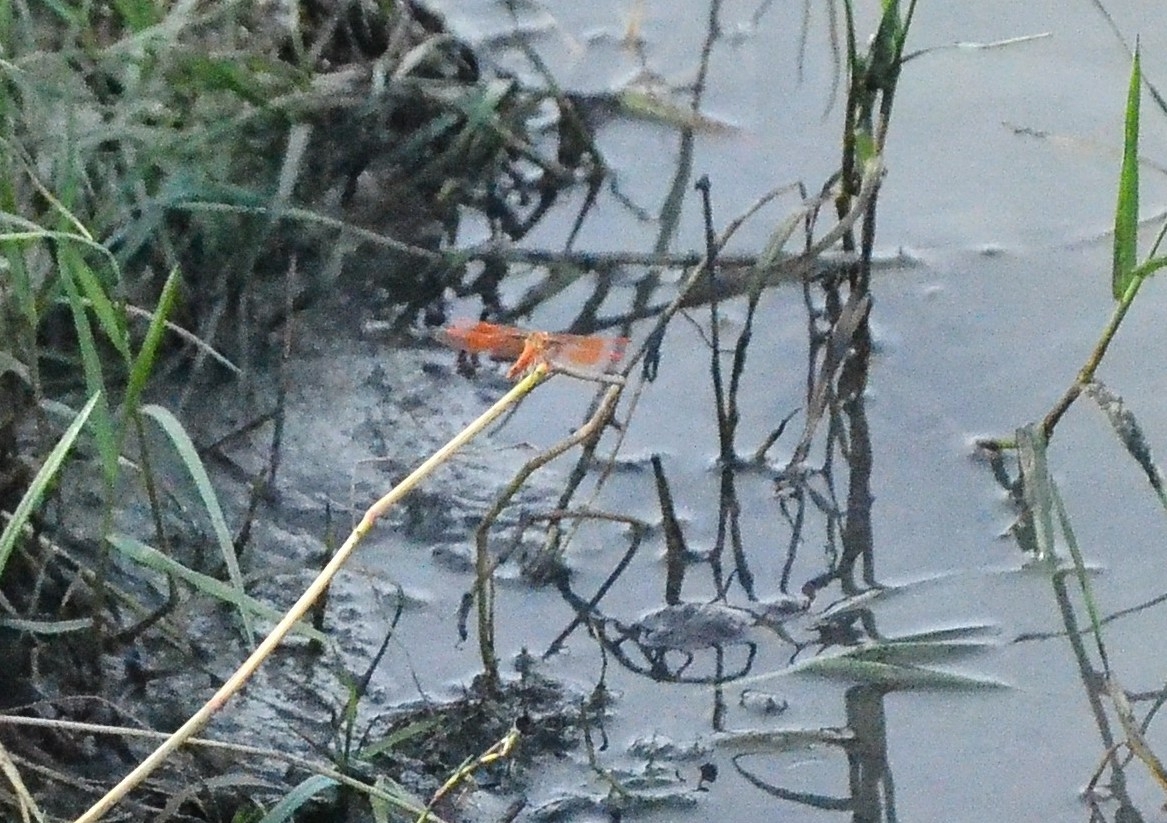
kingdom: Animalia
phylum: Arthropoda
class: Insecta
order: Odonata
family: Libellulidae
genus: Brachythemis
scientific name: Brachythemis contaminata
